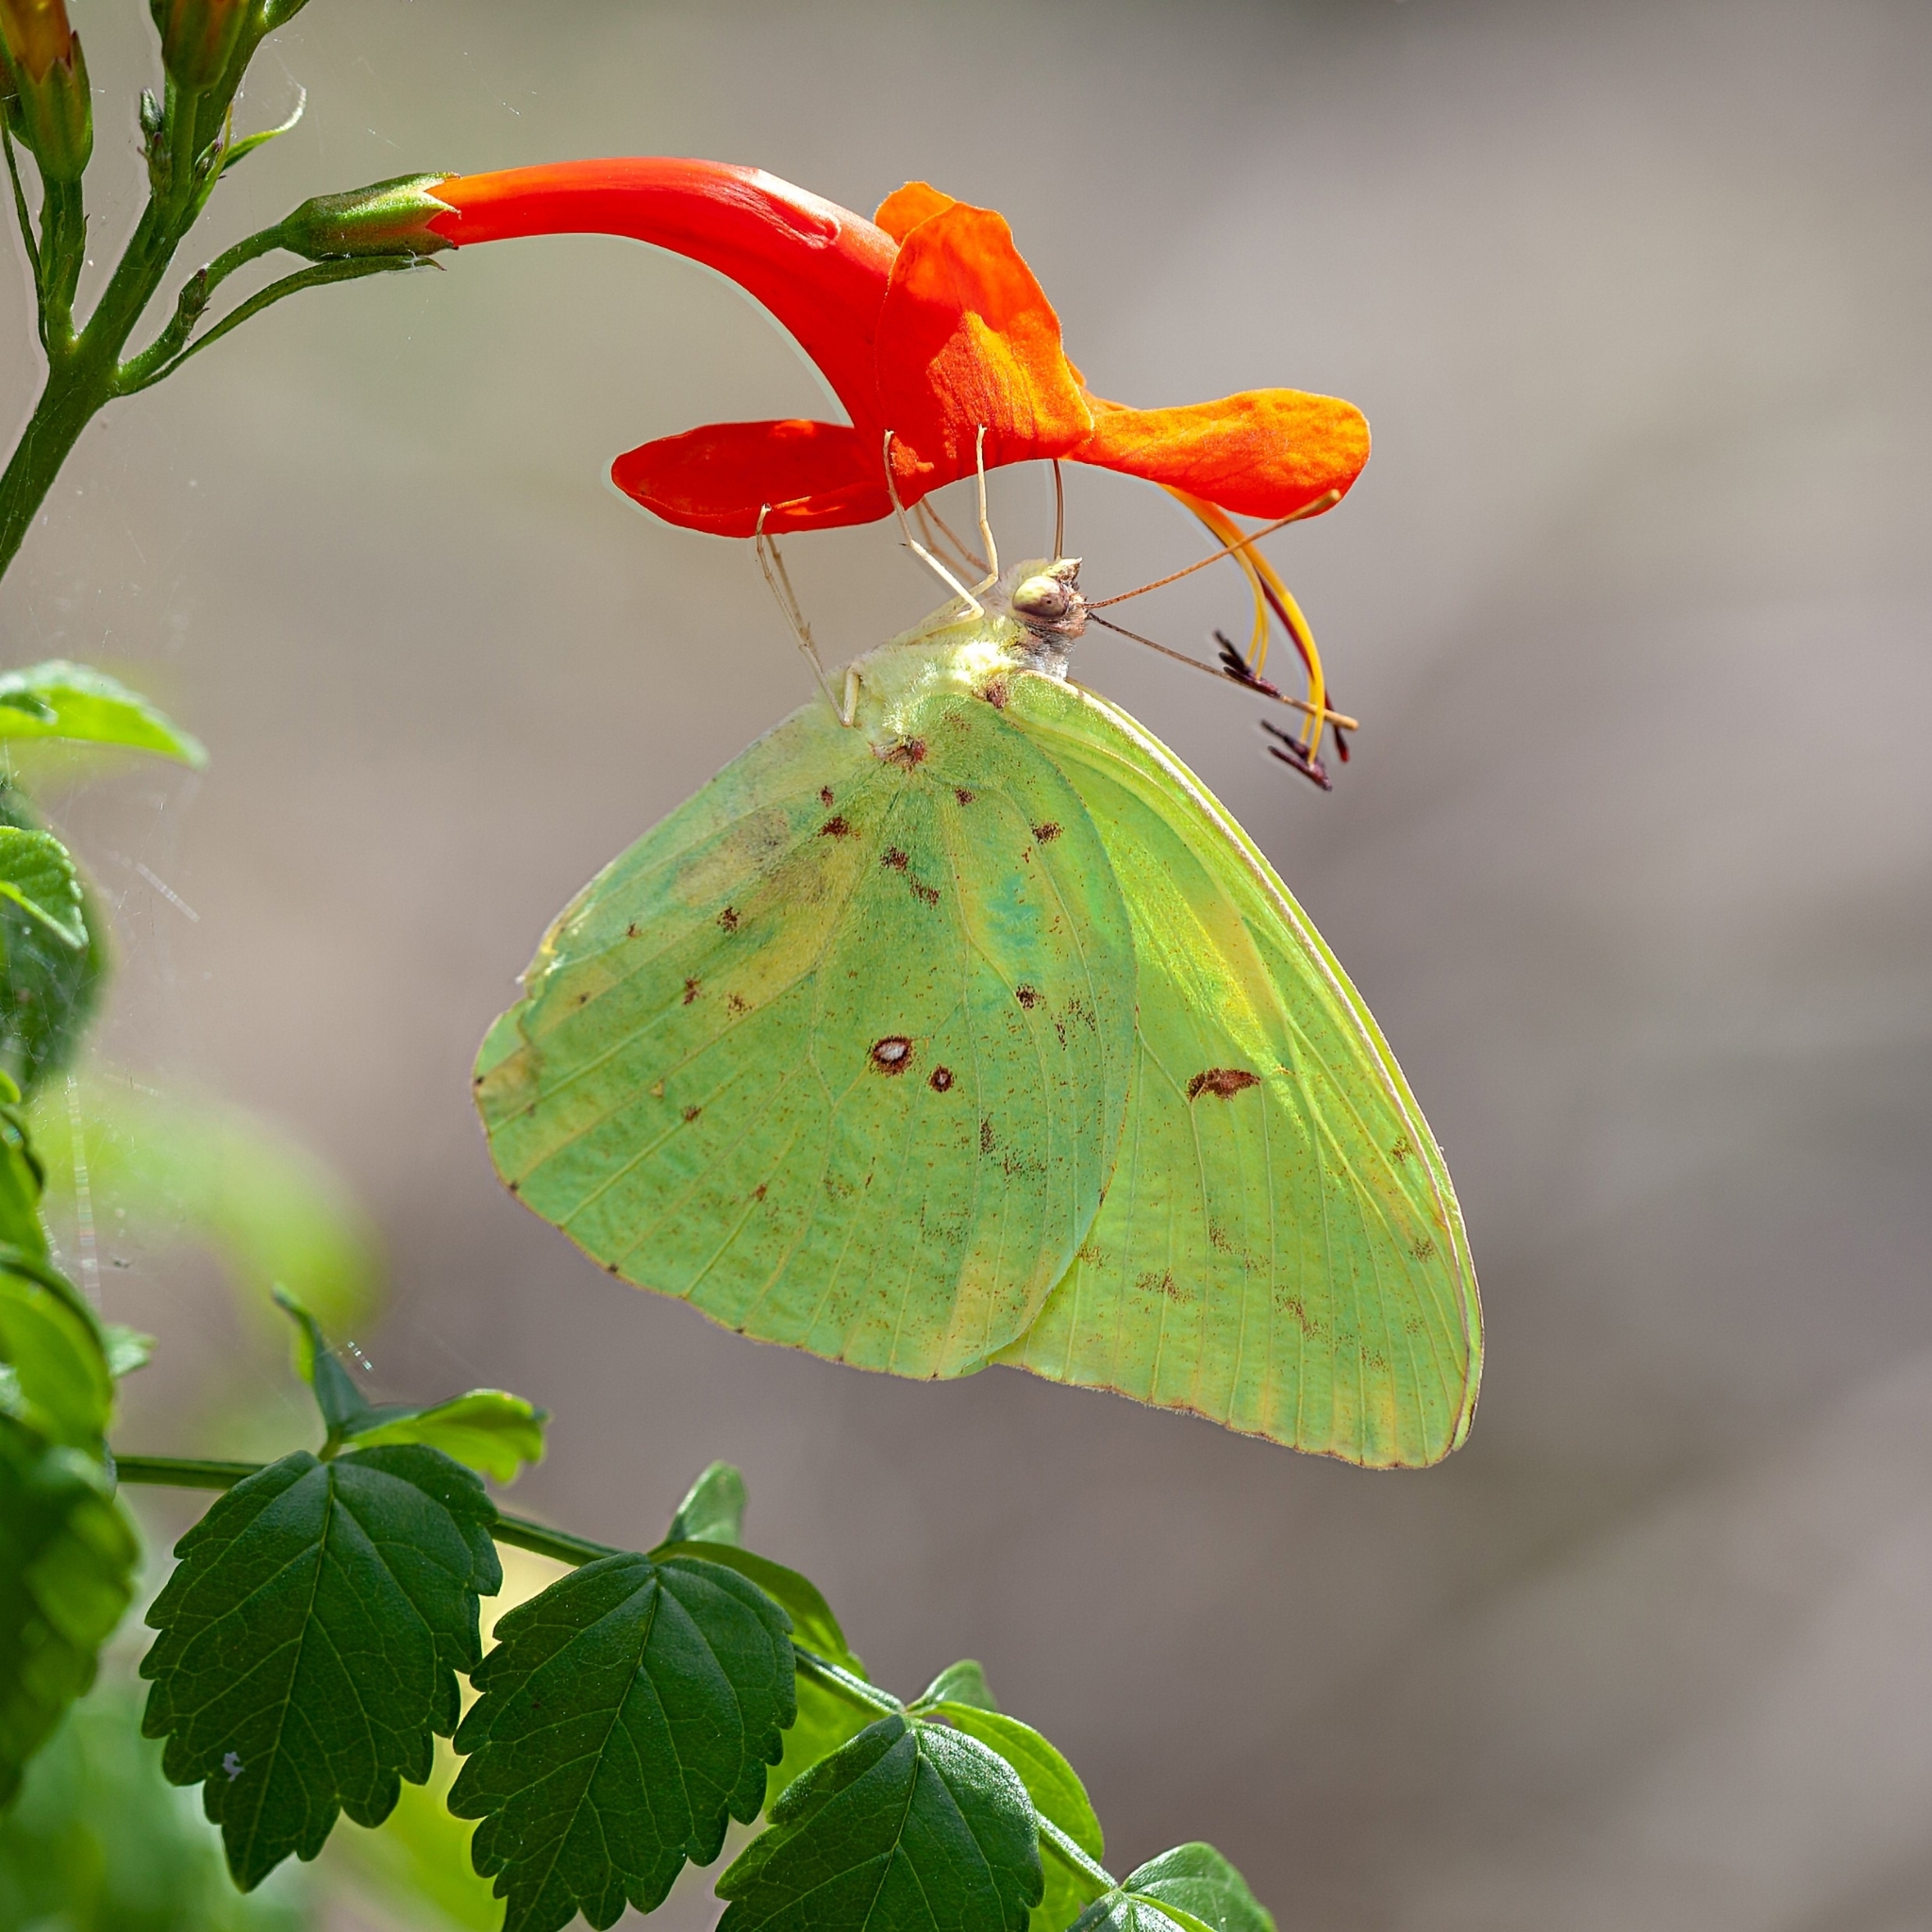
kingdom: Animalia
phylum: Arthropoda
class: Insecta
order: Lepidoptera
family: Pieridae
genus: Phoebis
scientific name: Phoebis sennae
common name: Cloudless sulphur
